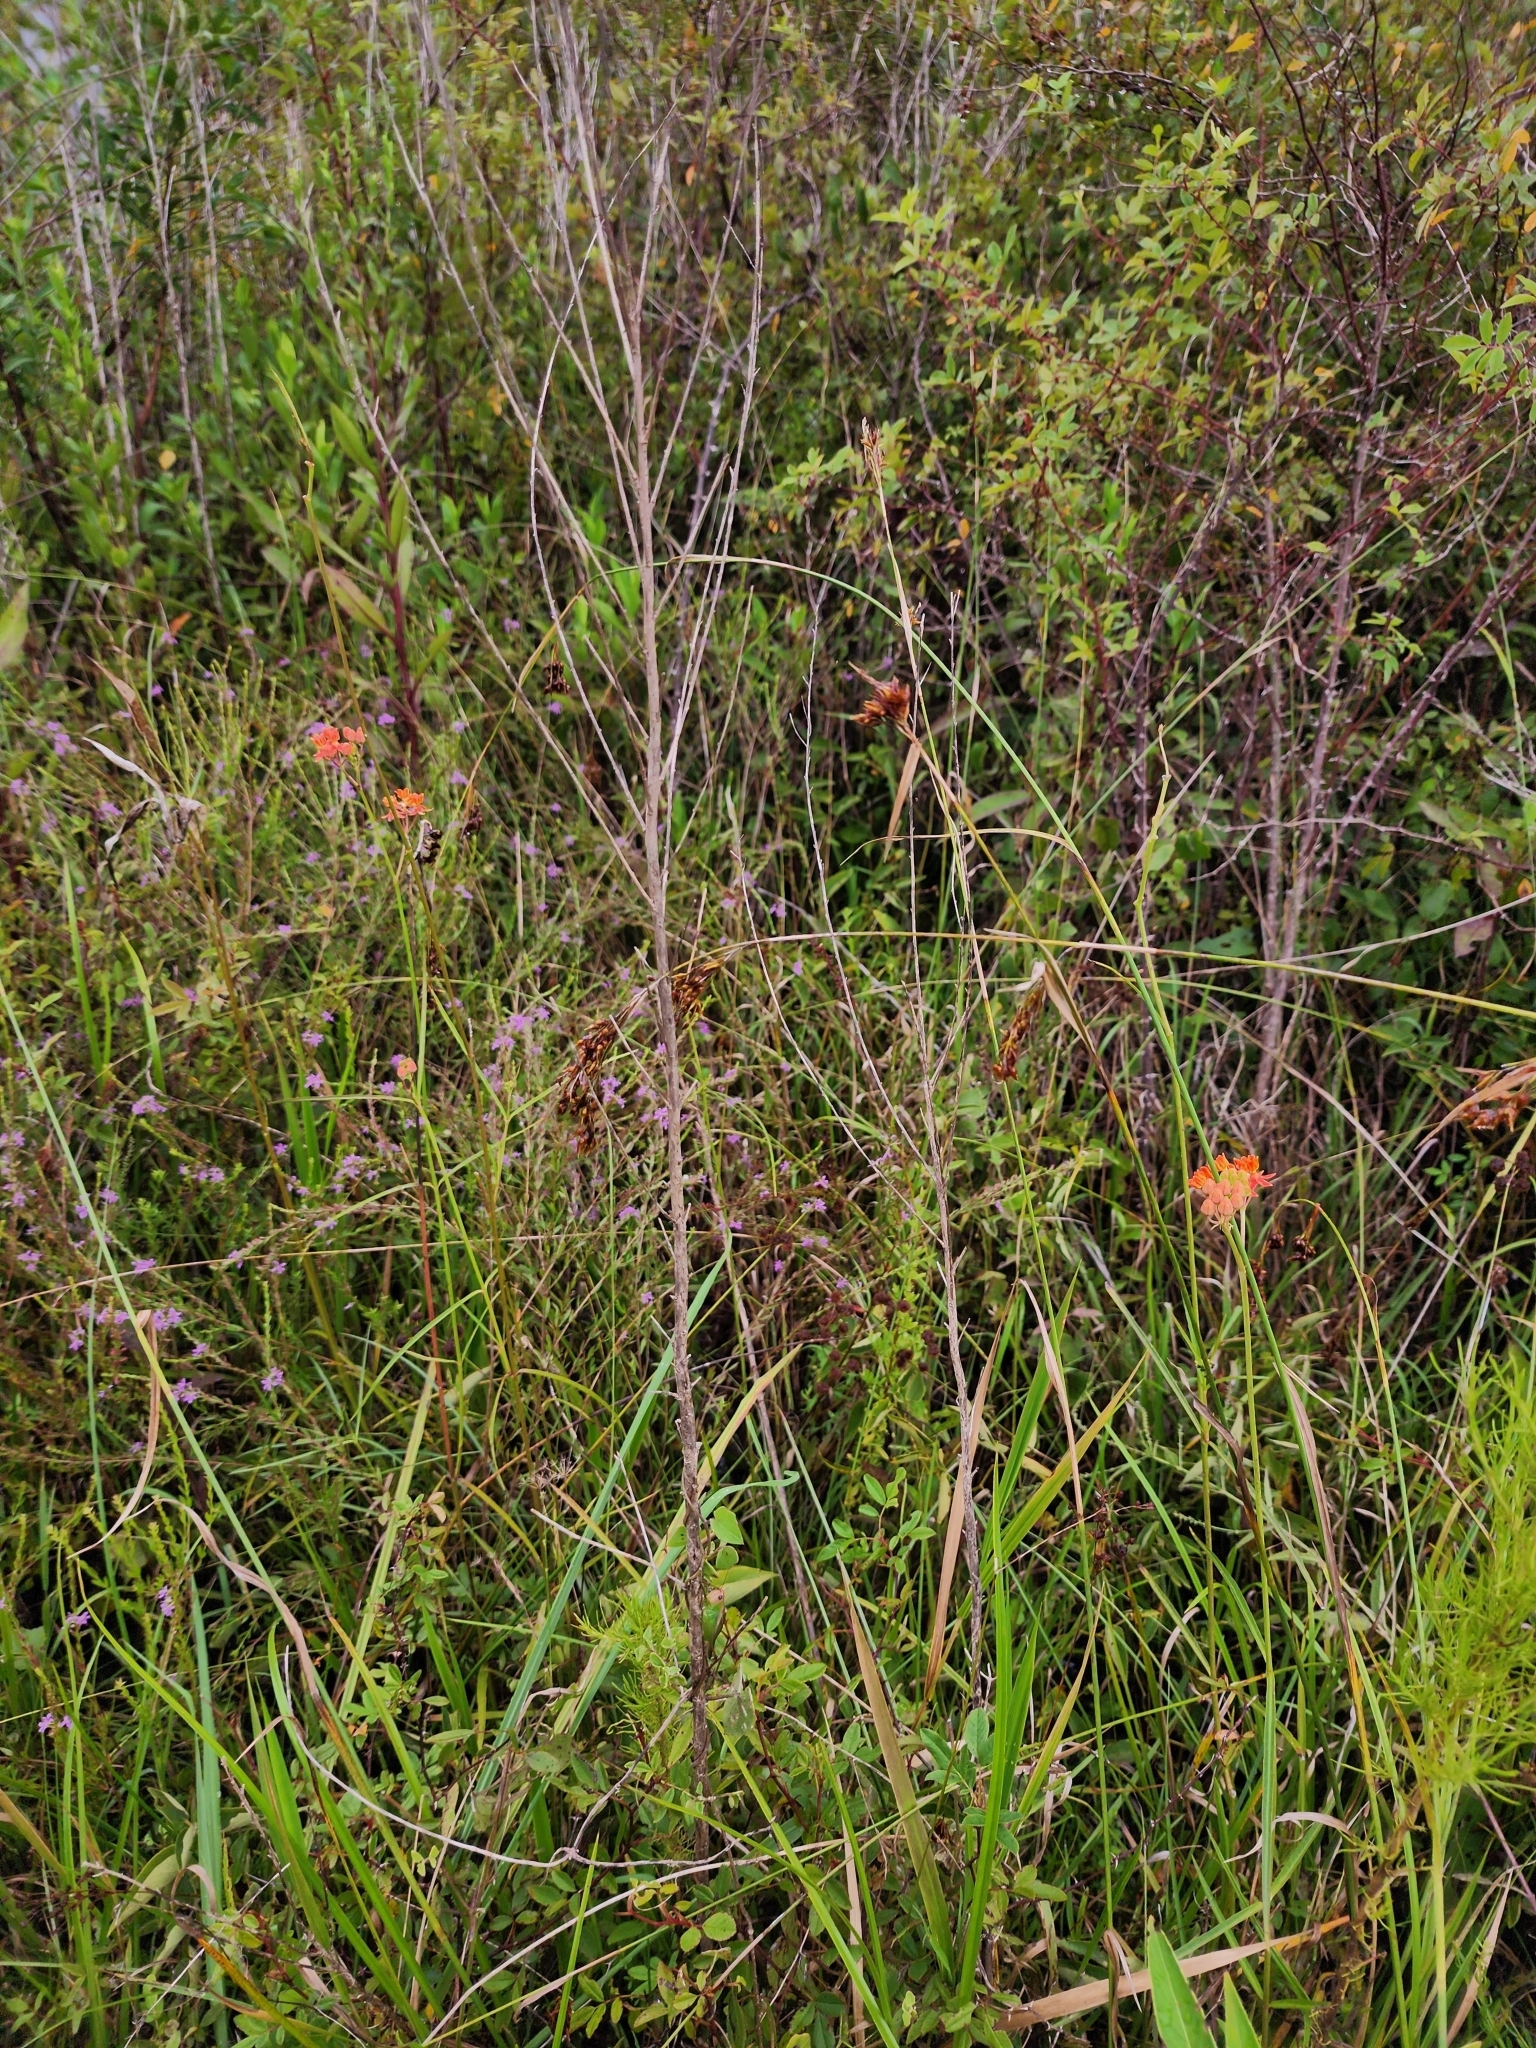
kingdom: Plantae
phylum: Tracheophyta
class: Magnoliopsida
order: Gentianales
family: Apocynaceae
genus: Asclepias
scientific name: Asclepias lanceolata
